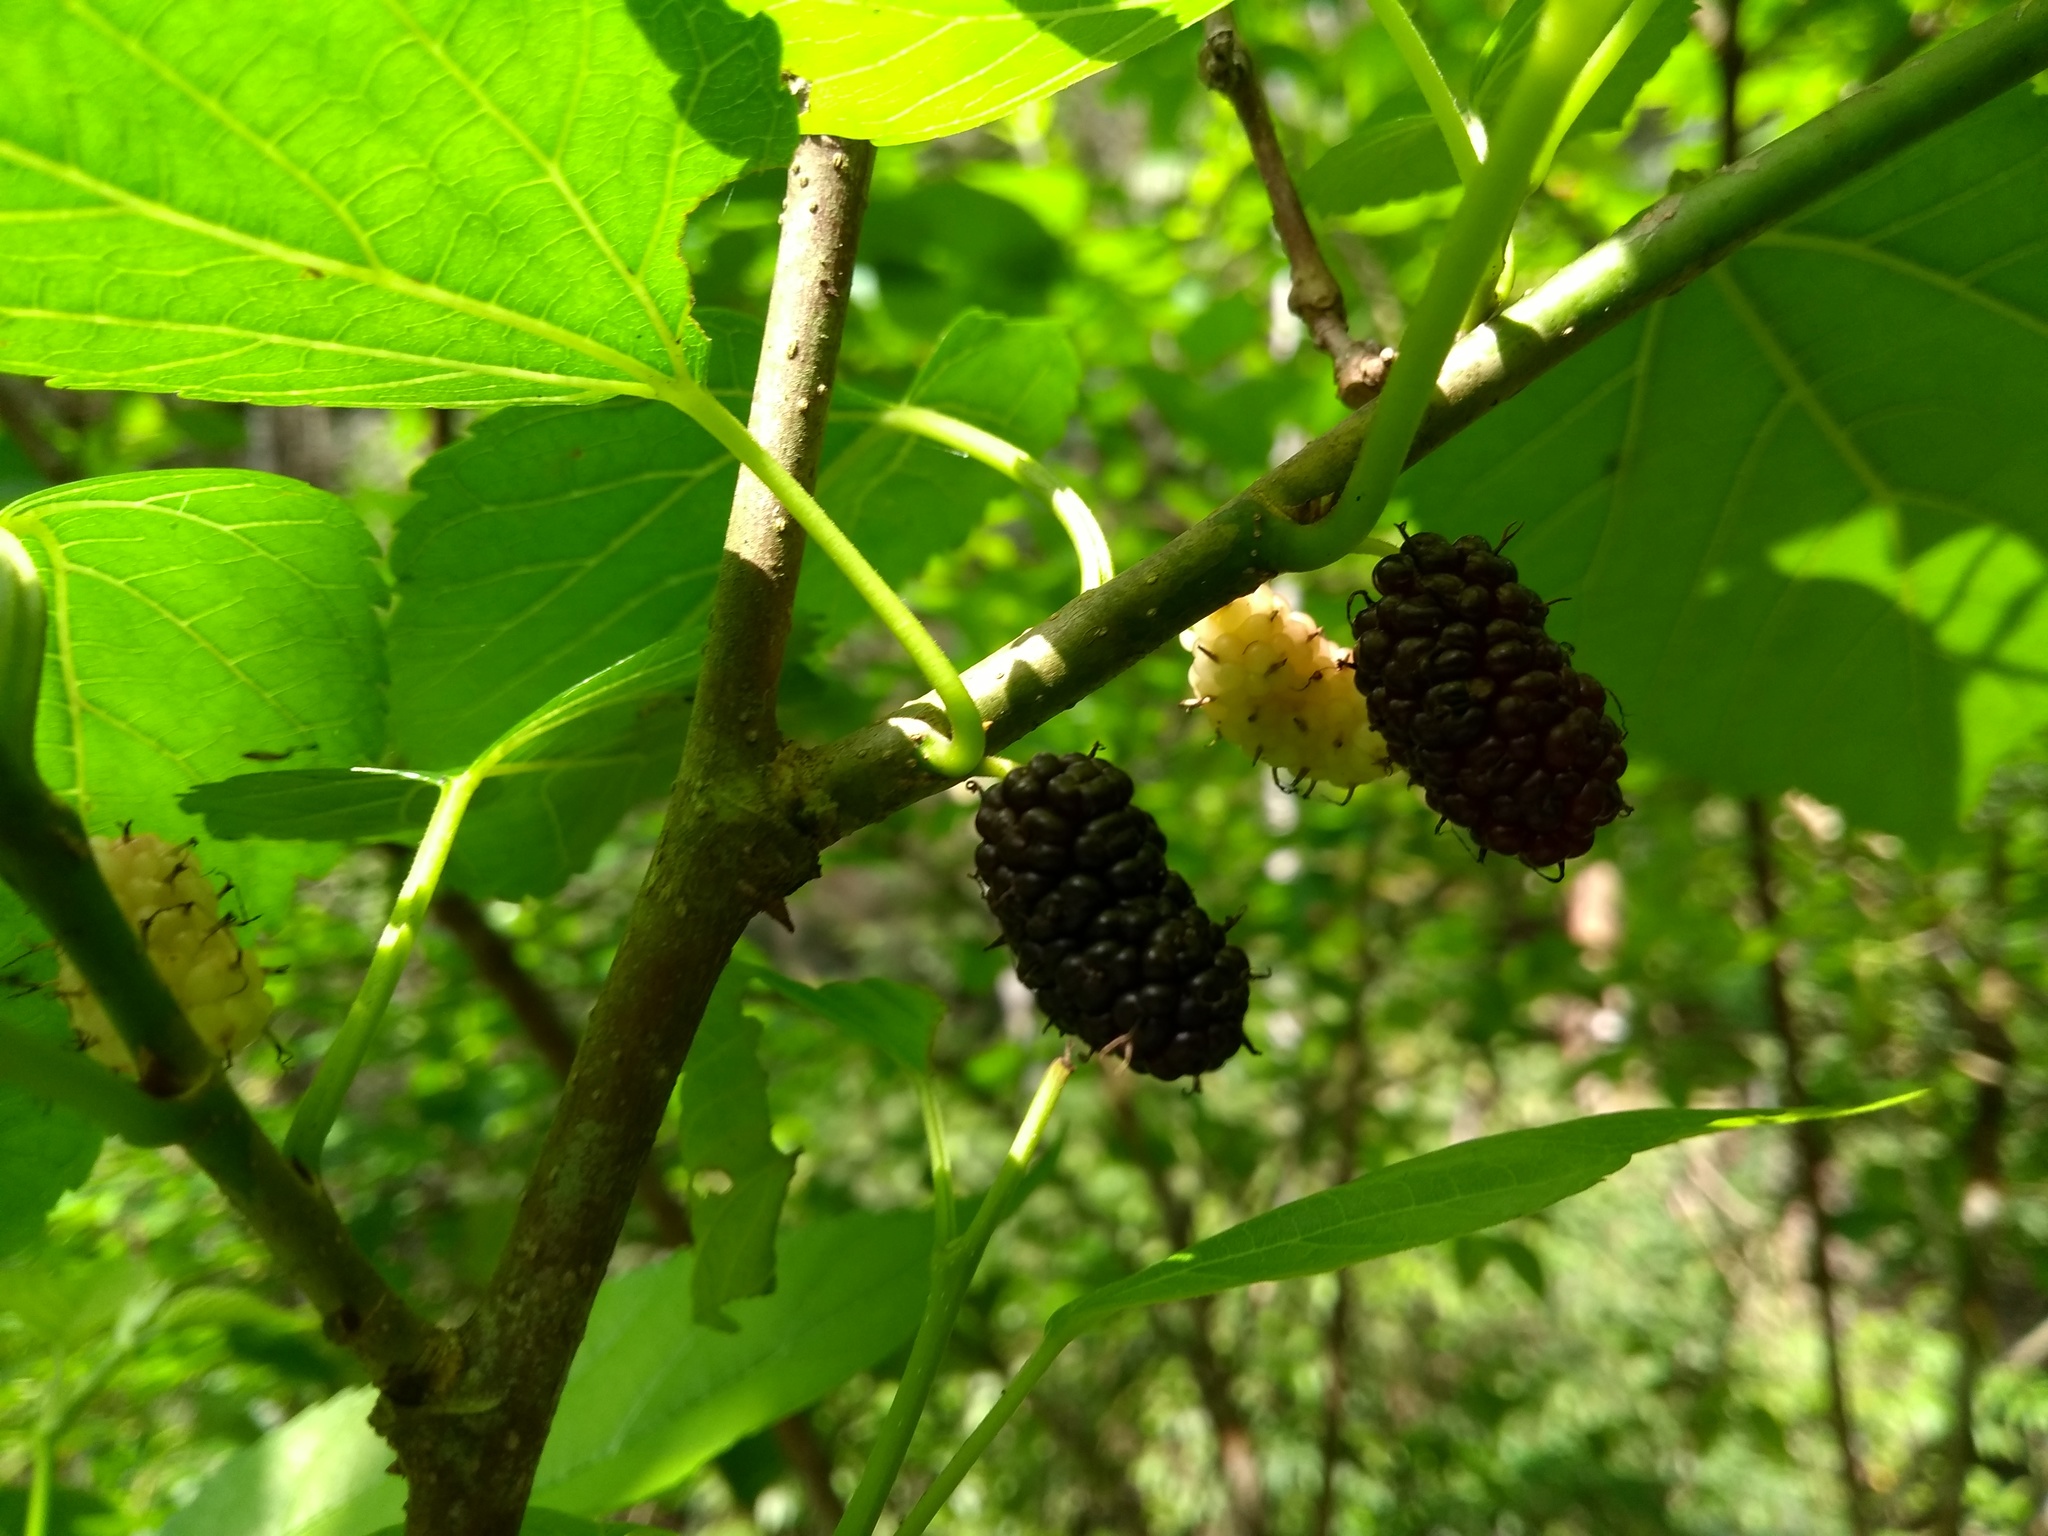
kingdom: Plantae
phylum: Tracheophyta
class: Magnoliopsida
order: Rosales
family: Moraceae
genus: Morus
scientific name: Morus nigra
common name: Black mulberry
